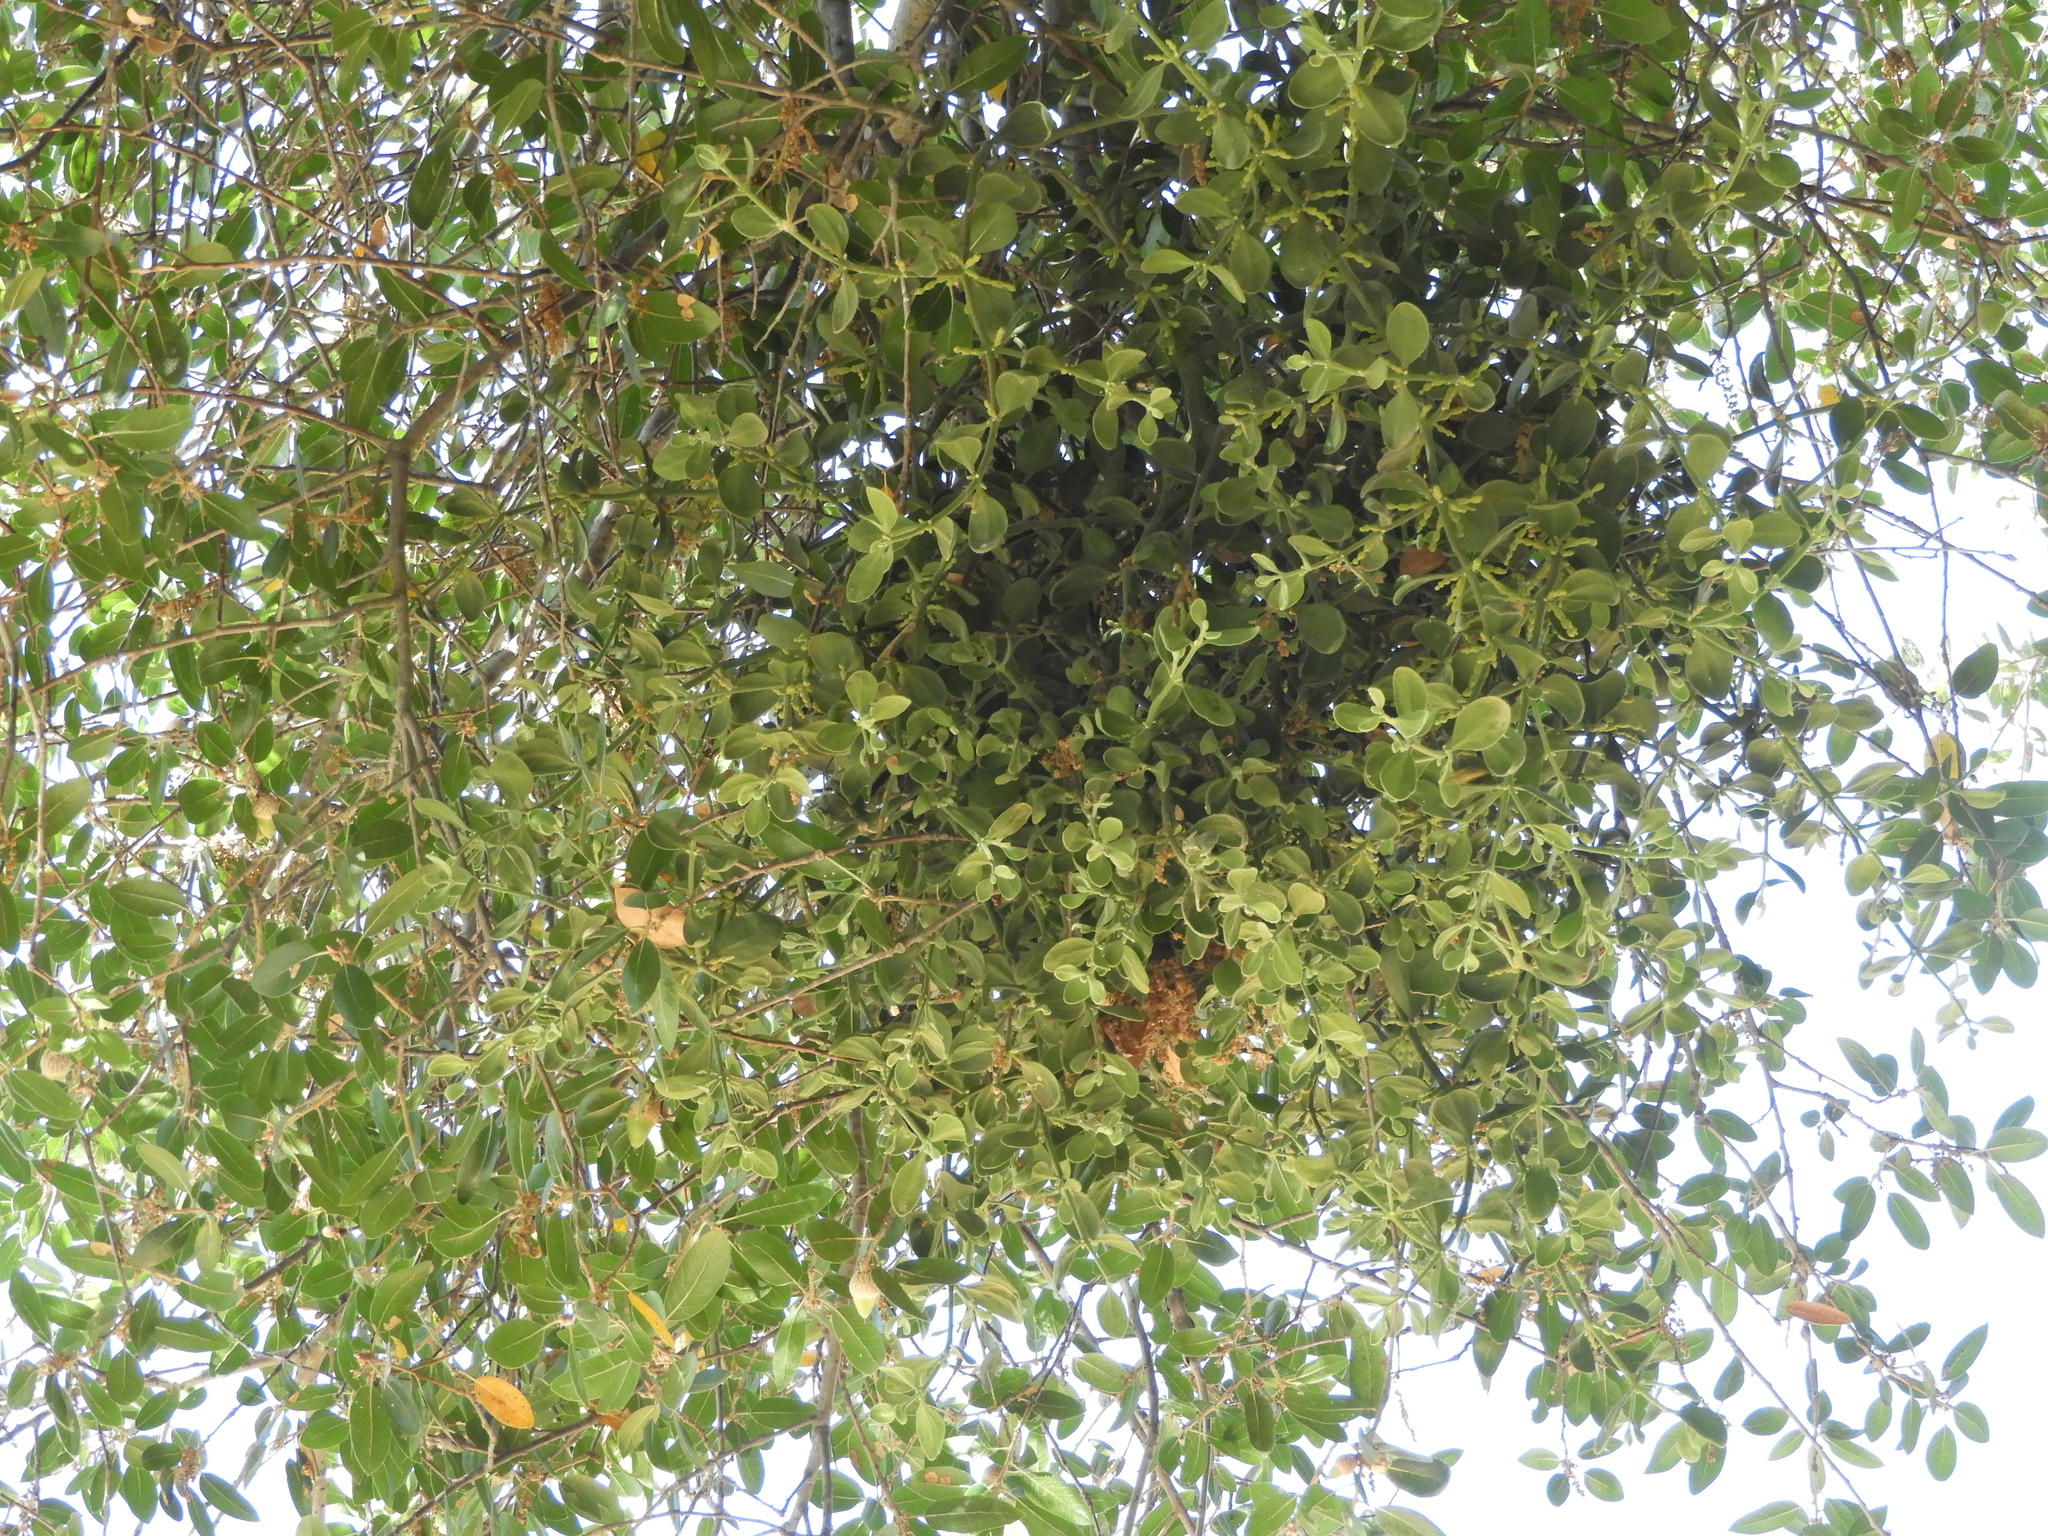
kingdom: Plantae
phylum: Tracheophyta
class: Magnoliopsida
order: Santalales
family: Viscaceae
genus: Phoradendron
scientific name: Phoradendron leucarpum
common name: Pacific mistletoe
